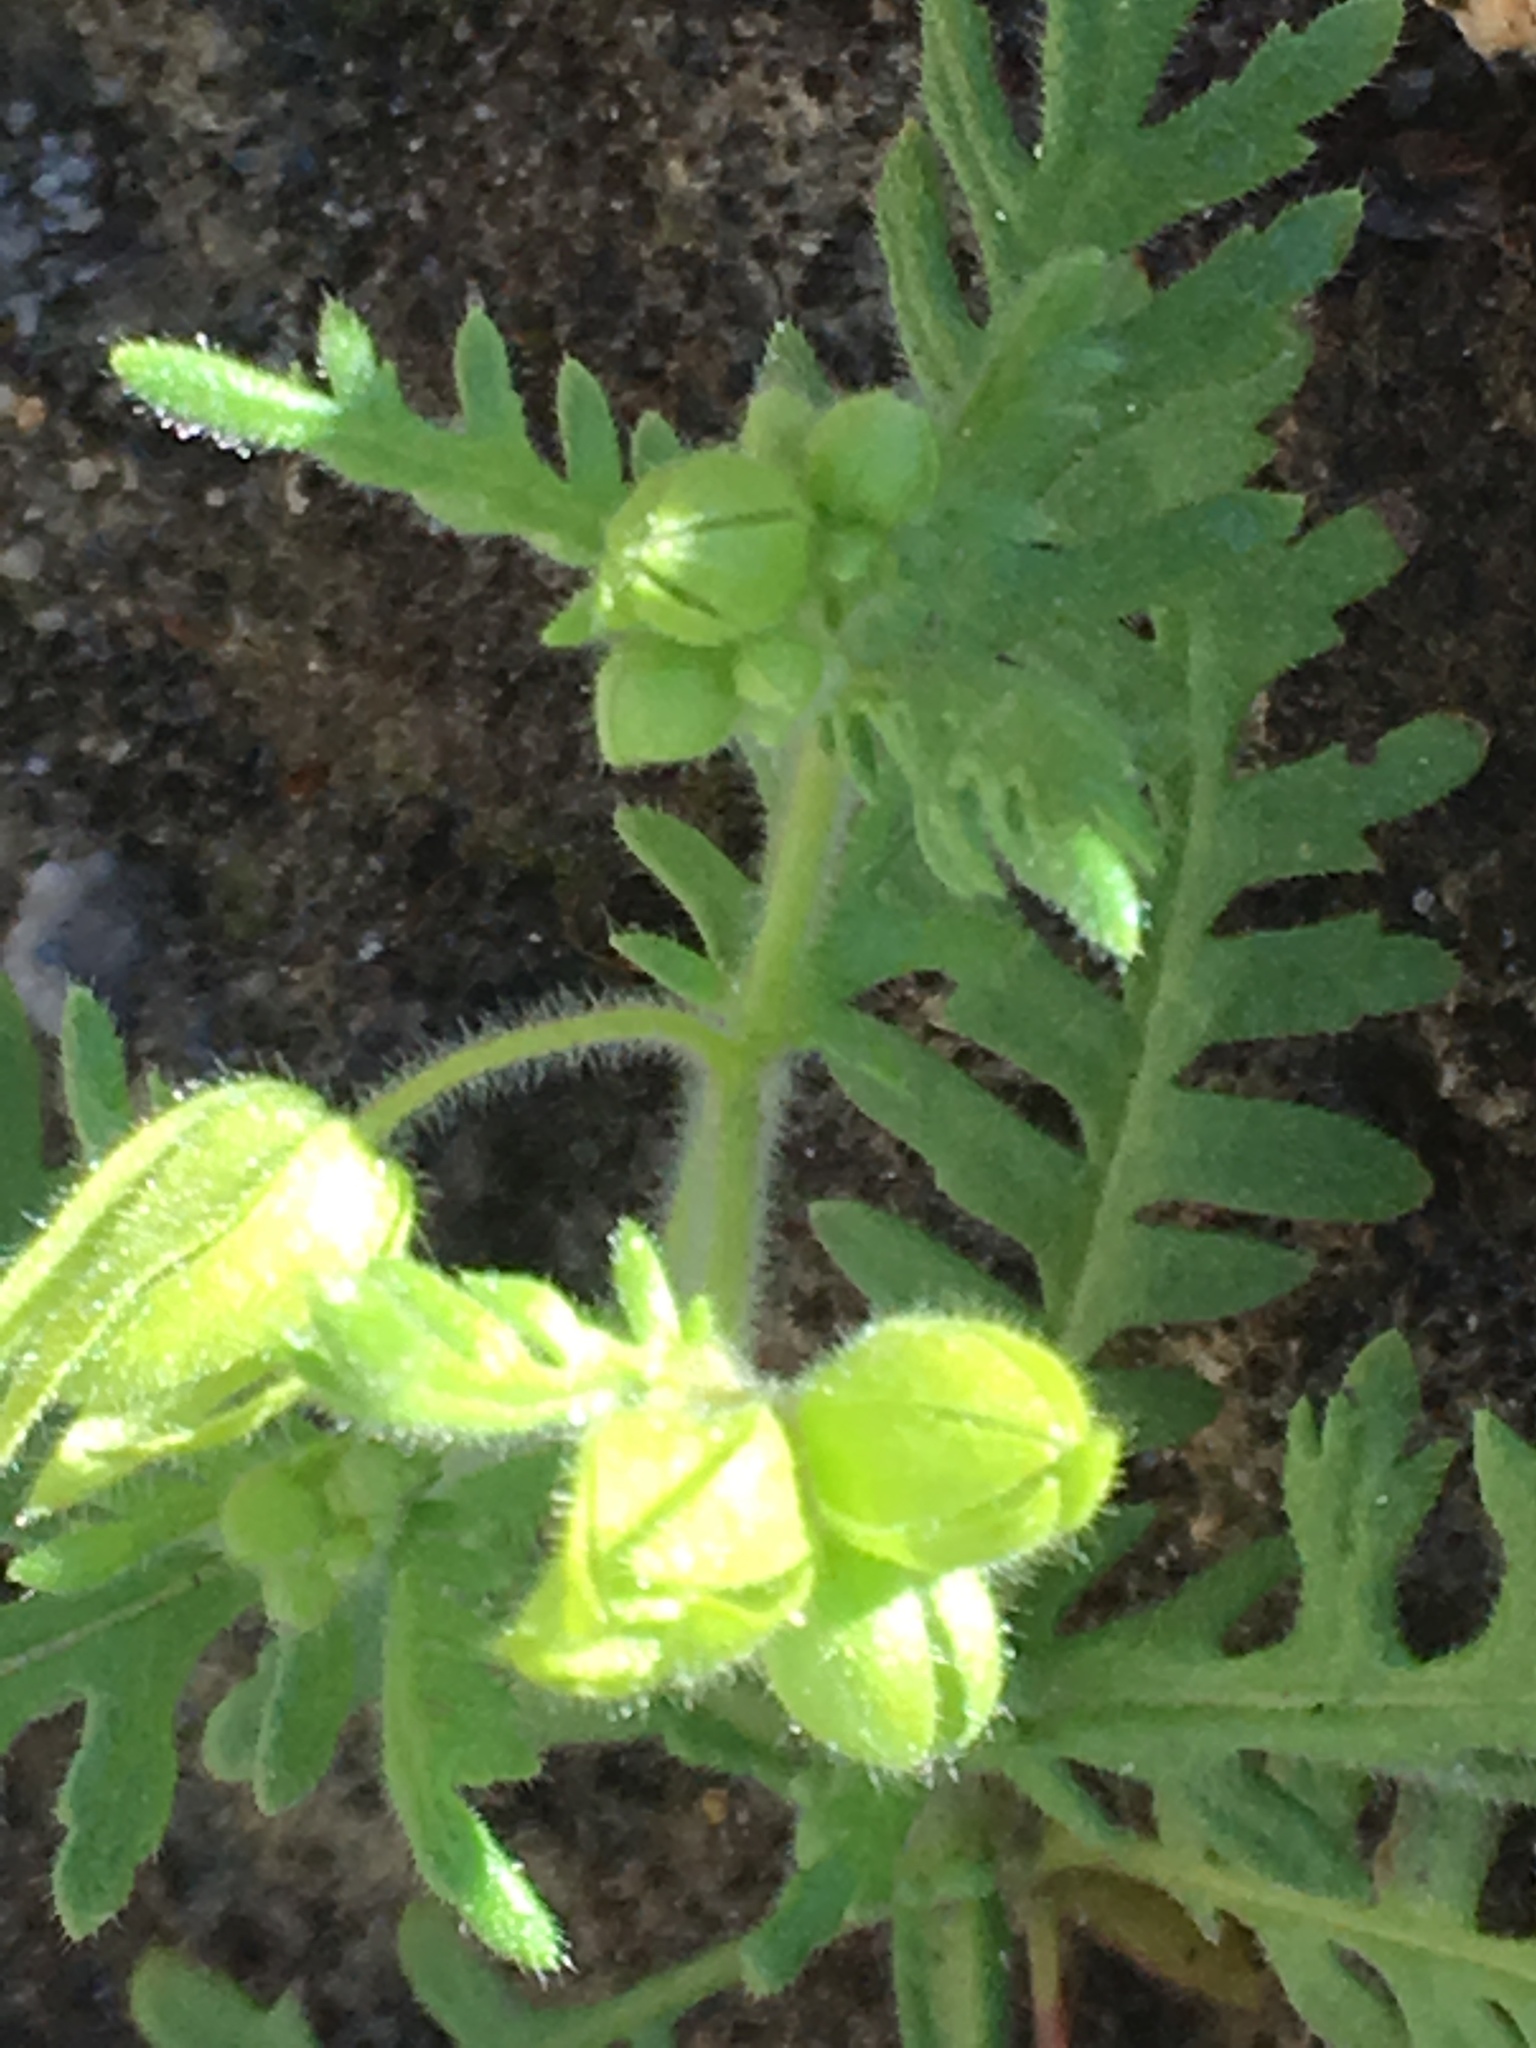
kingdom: Plantae
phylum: Tracheophyta
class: Magnoliopsida
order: Boraginales
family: Hydrophyllaceae
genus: Emmenanthe
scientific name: Emmenanthe penduliflora
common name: Whispering-bells
